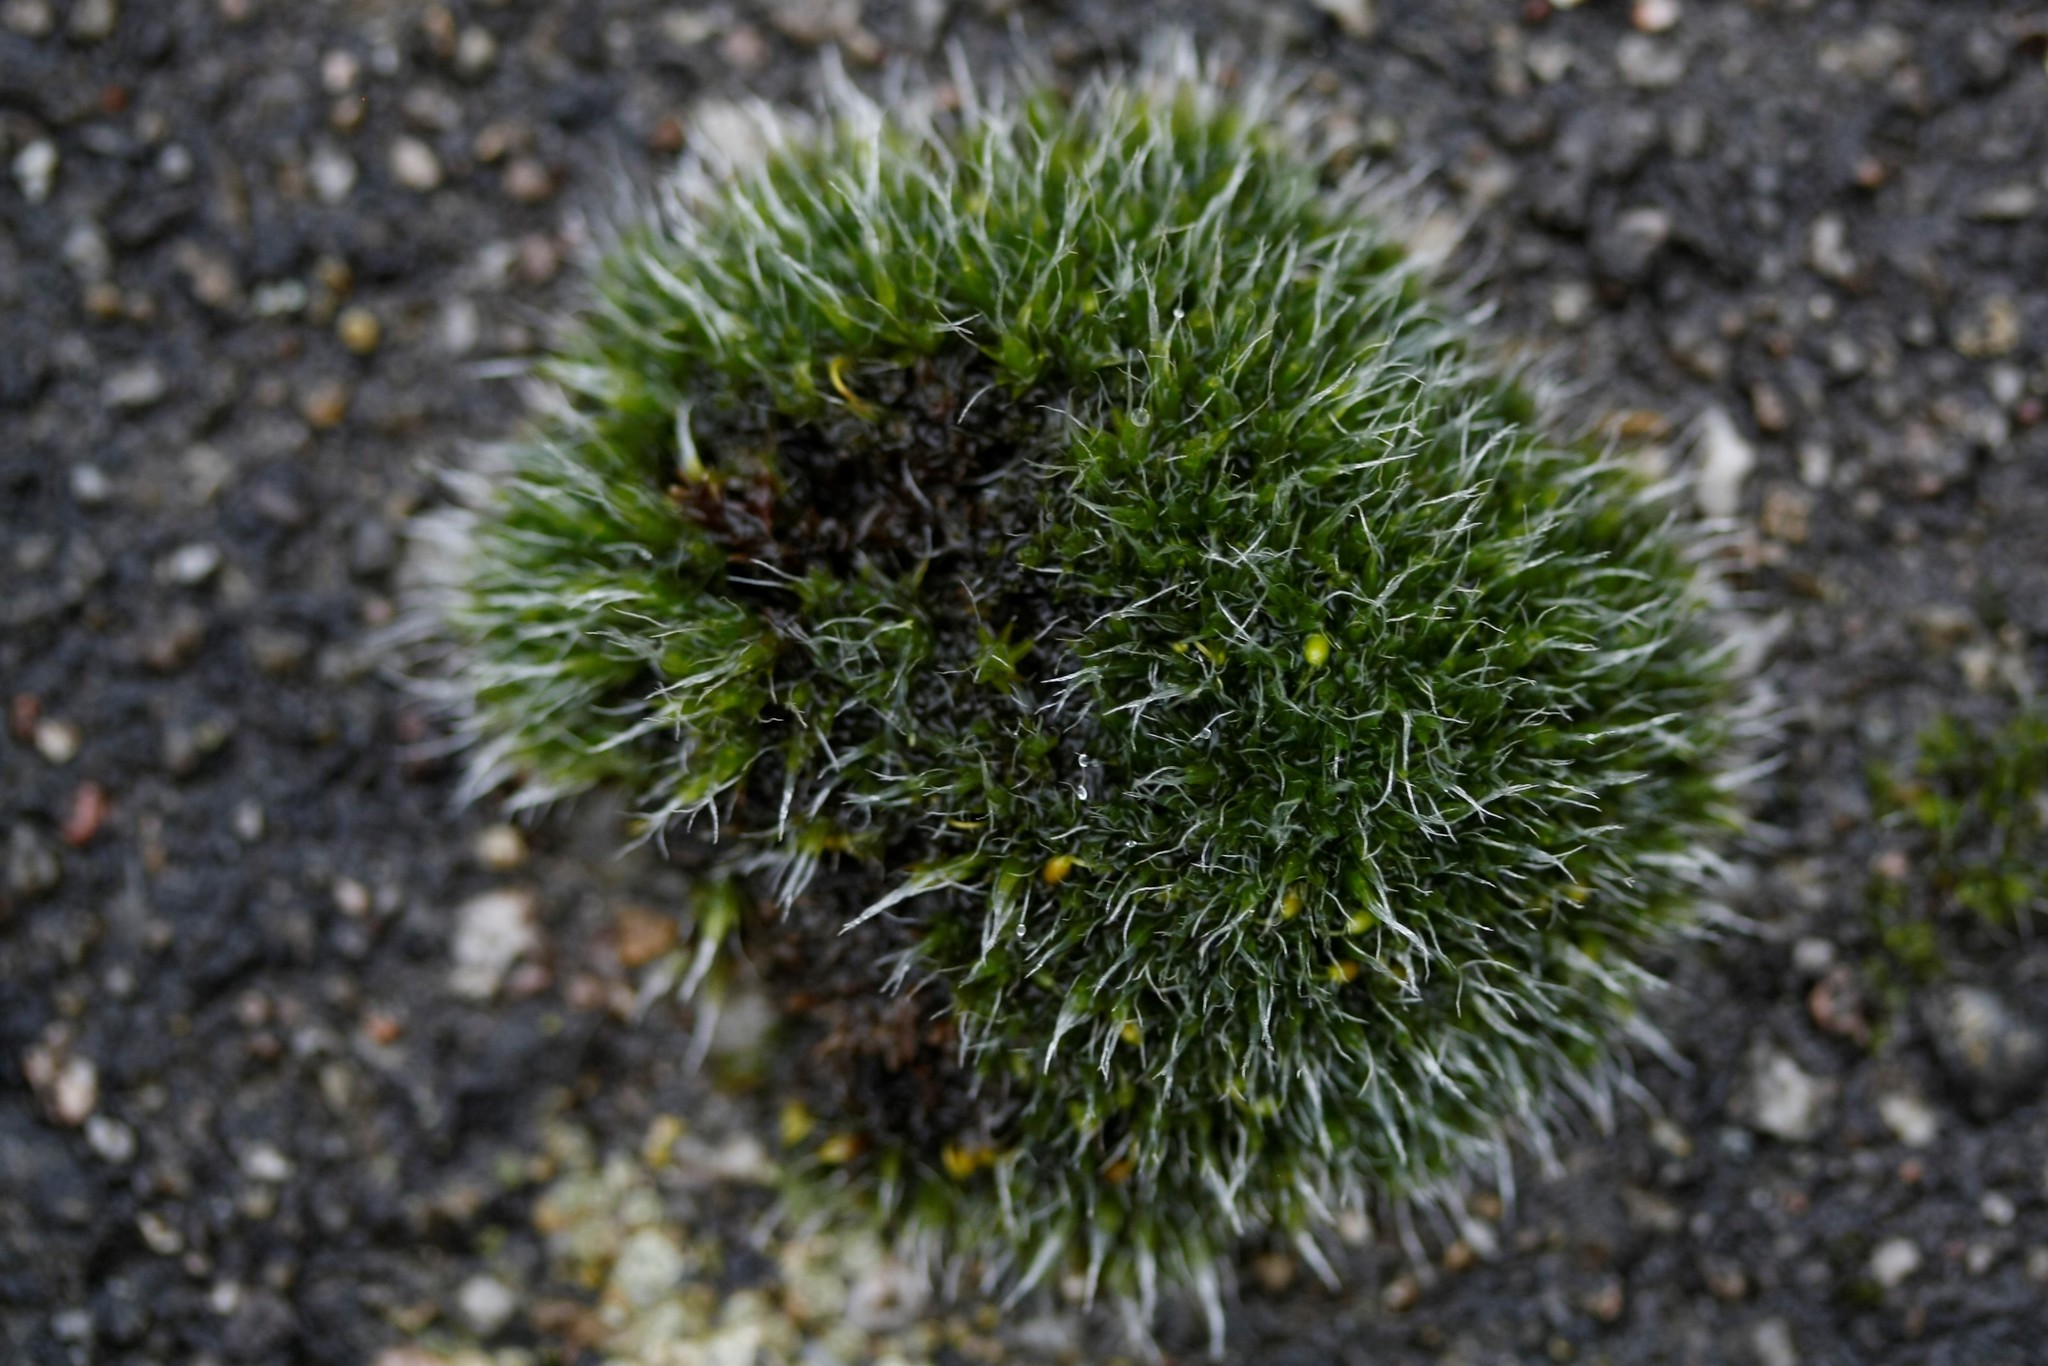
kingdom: Plantae
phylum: Bryophyta
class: Bryopsida
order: Grimmiales
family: Grimmiaceae
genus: Grimmia
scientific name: Grimmia pulvinata
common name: Grey-cushioned grimmia
